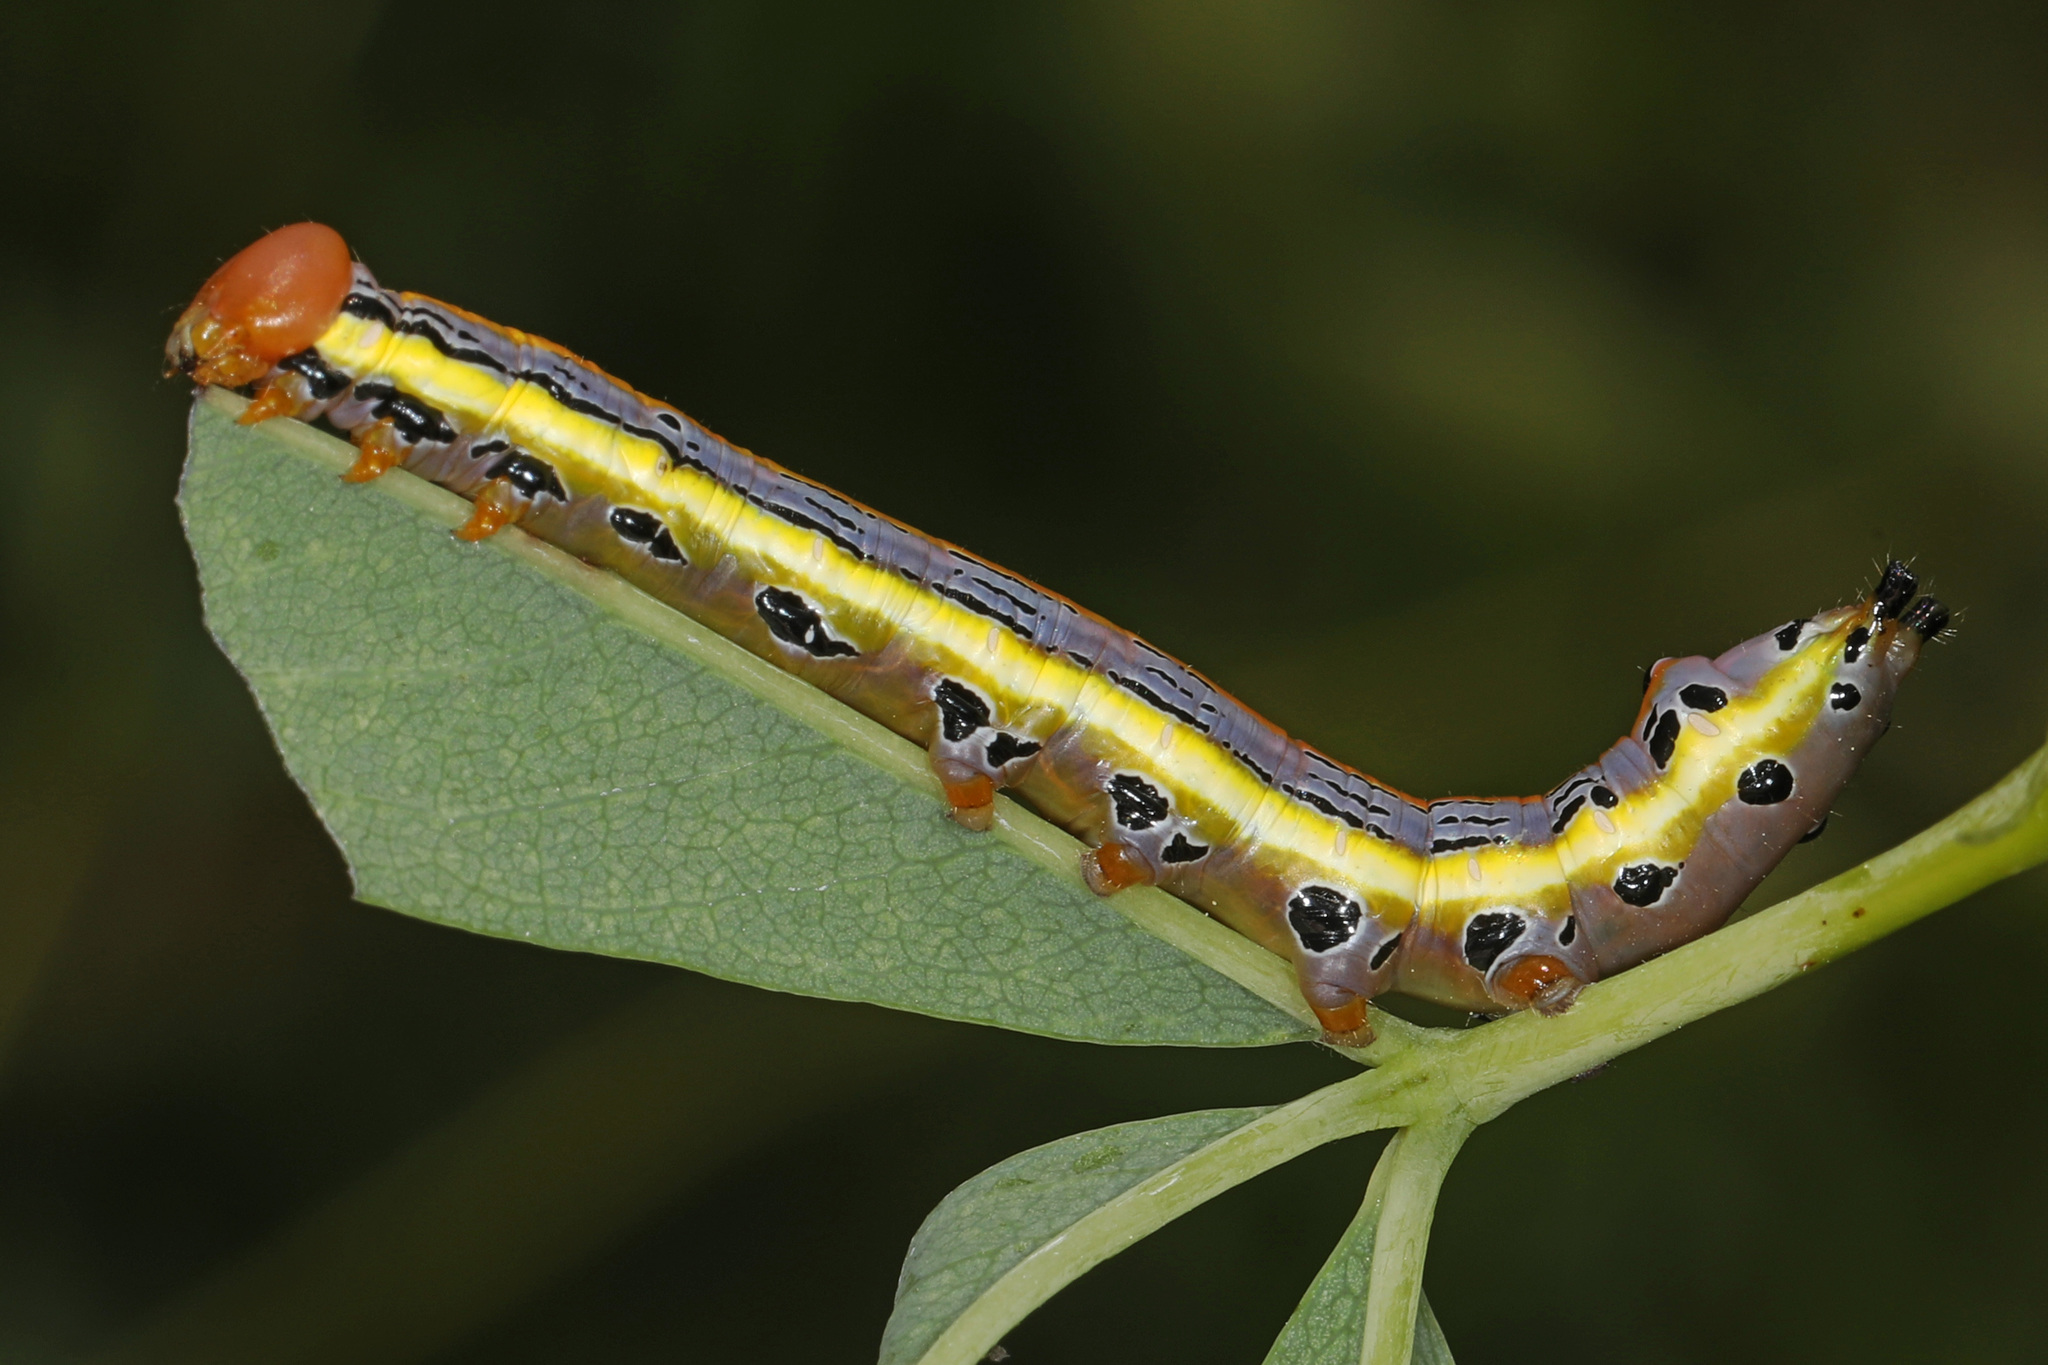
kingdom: Animalia
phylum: Arthropoda
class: Insecta
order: Lepidoptera
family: Notodontidae
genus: Dasylophia
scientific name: Dasylophia anguina
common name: Black-spotted prominent
